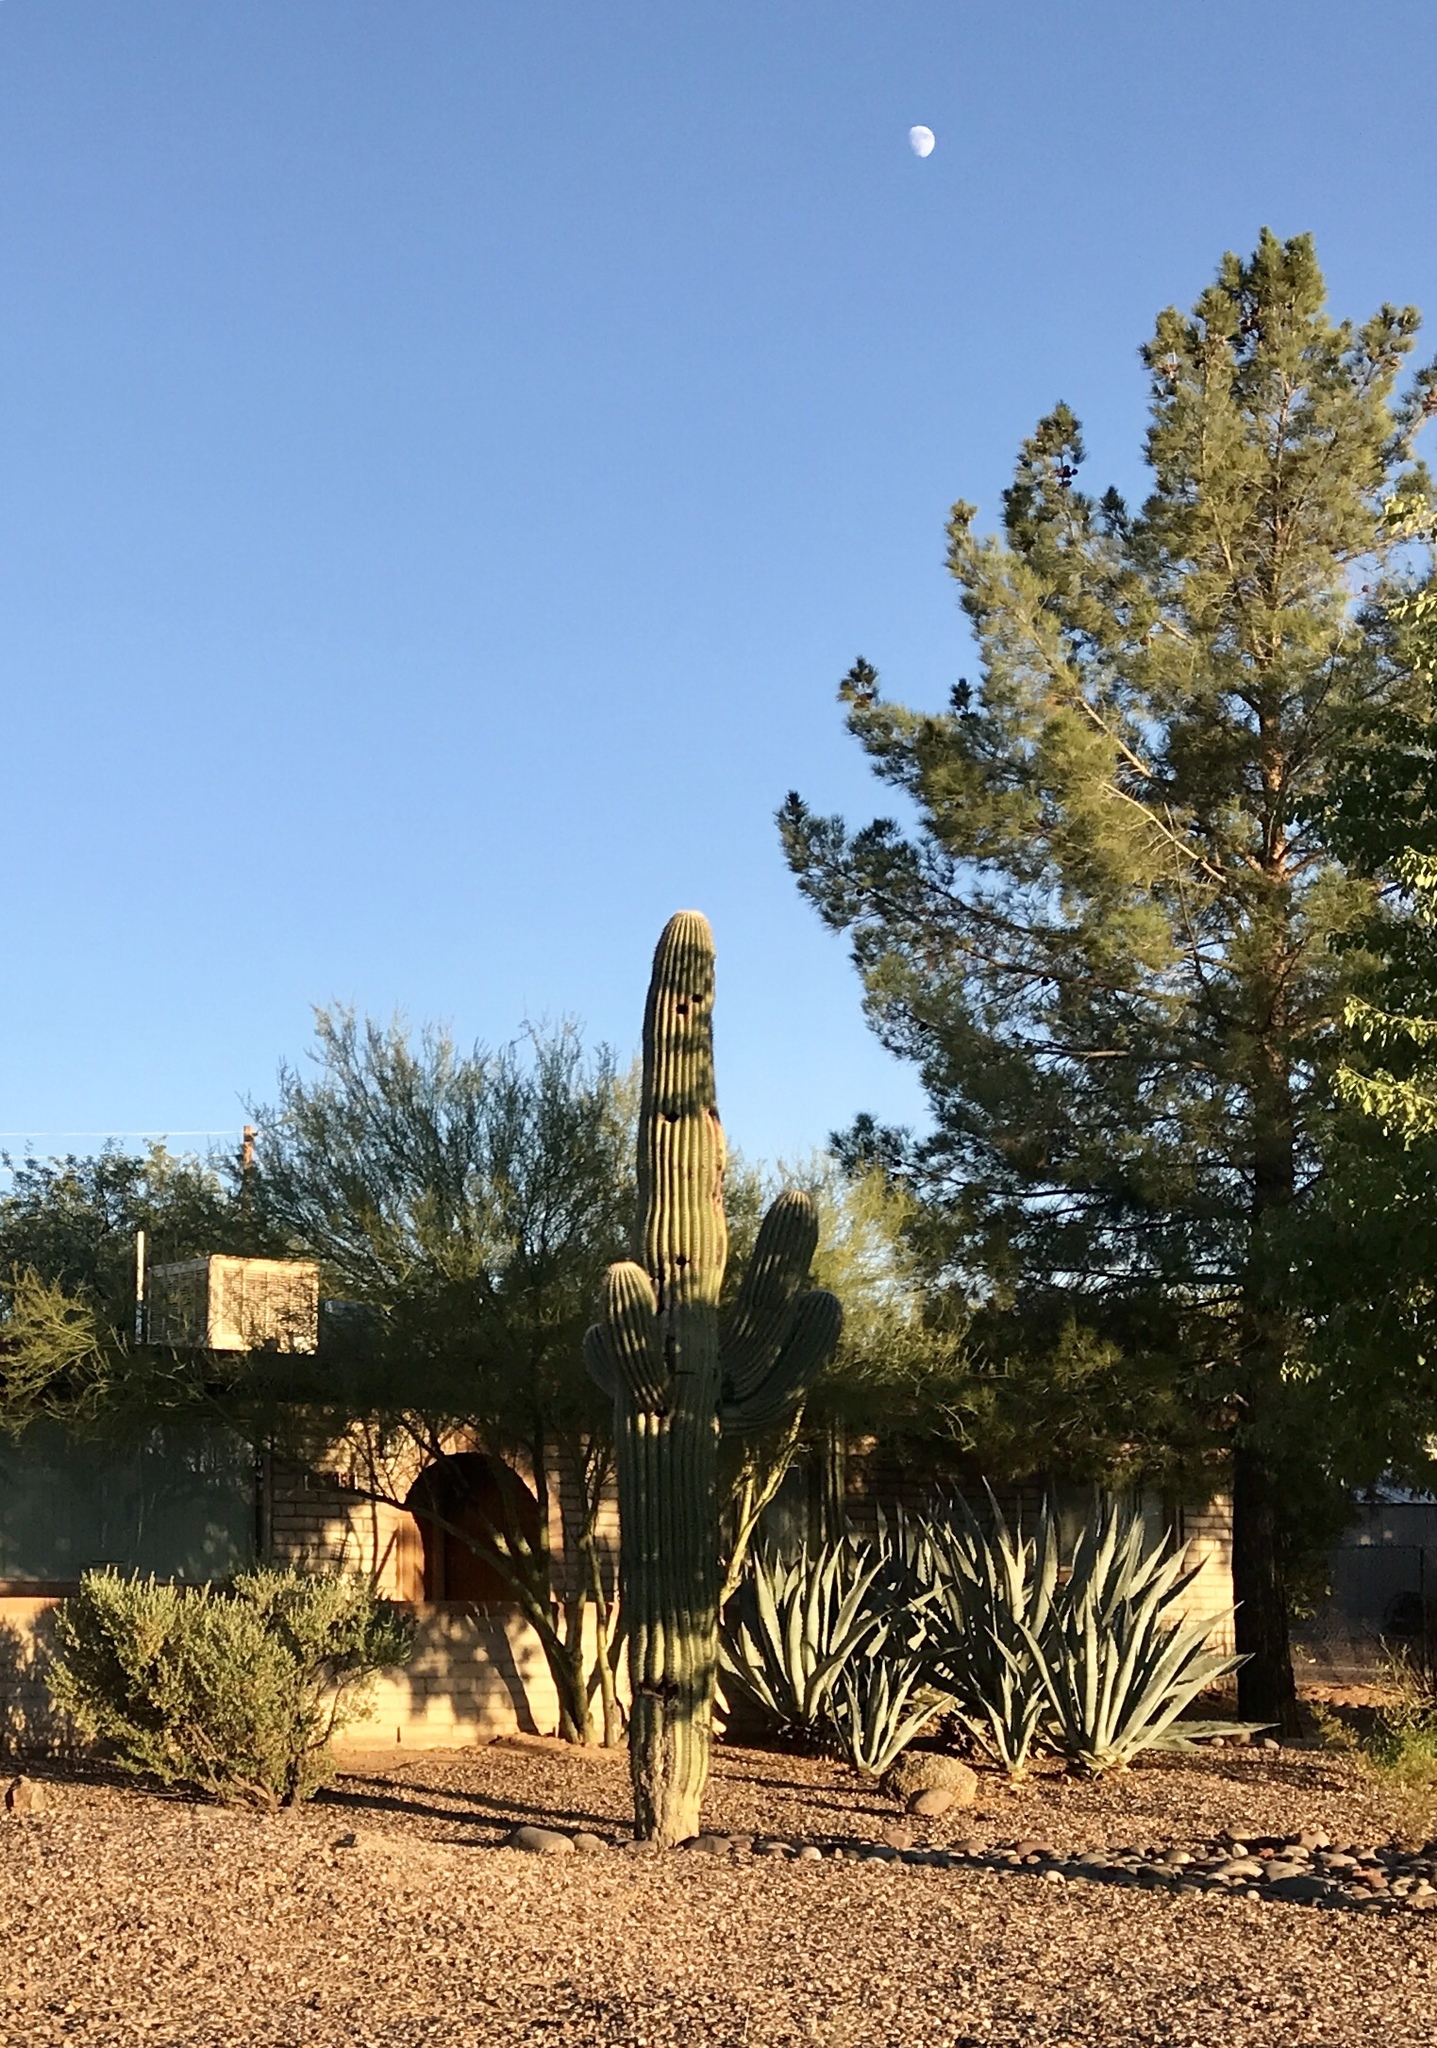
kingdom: Plantae
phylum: Tracheophyta
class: Magnoliopsida
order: Caryophyllales
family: Cactaceae
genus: Carnegiea
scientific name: Carnegiea gigantea
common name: Saguaro
